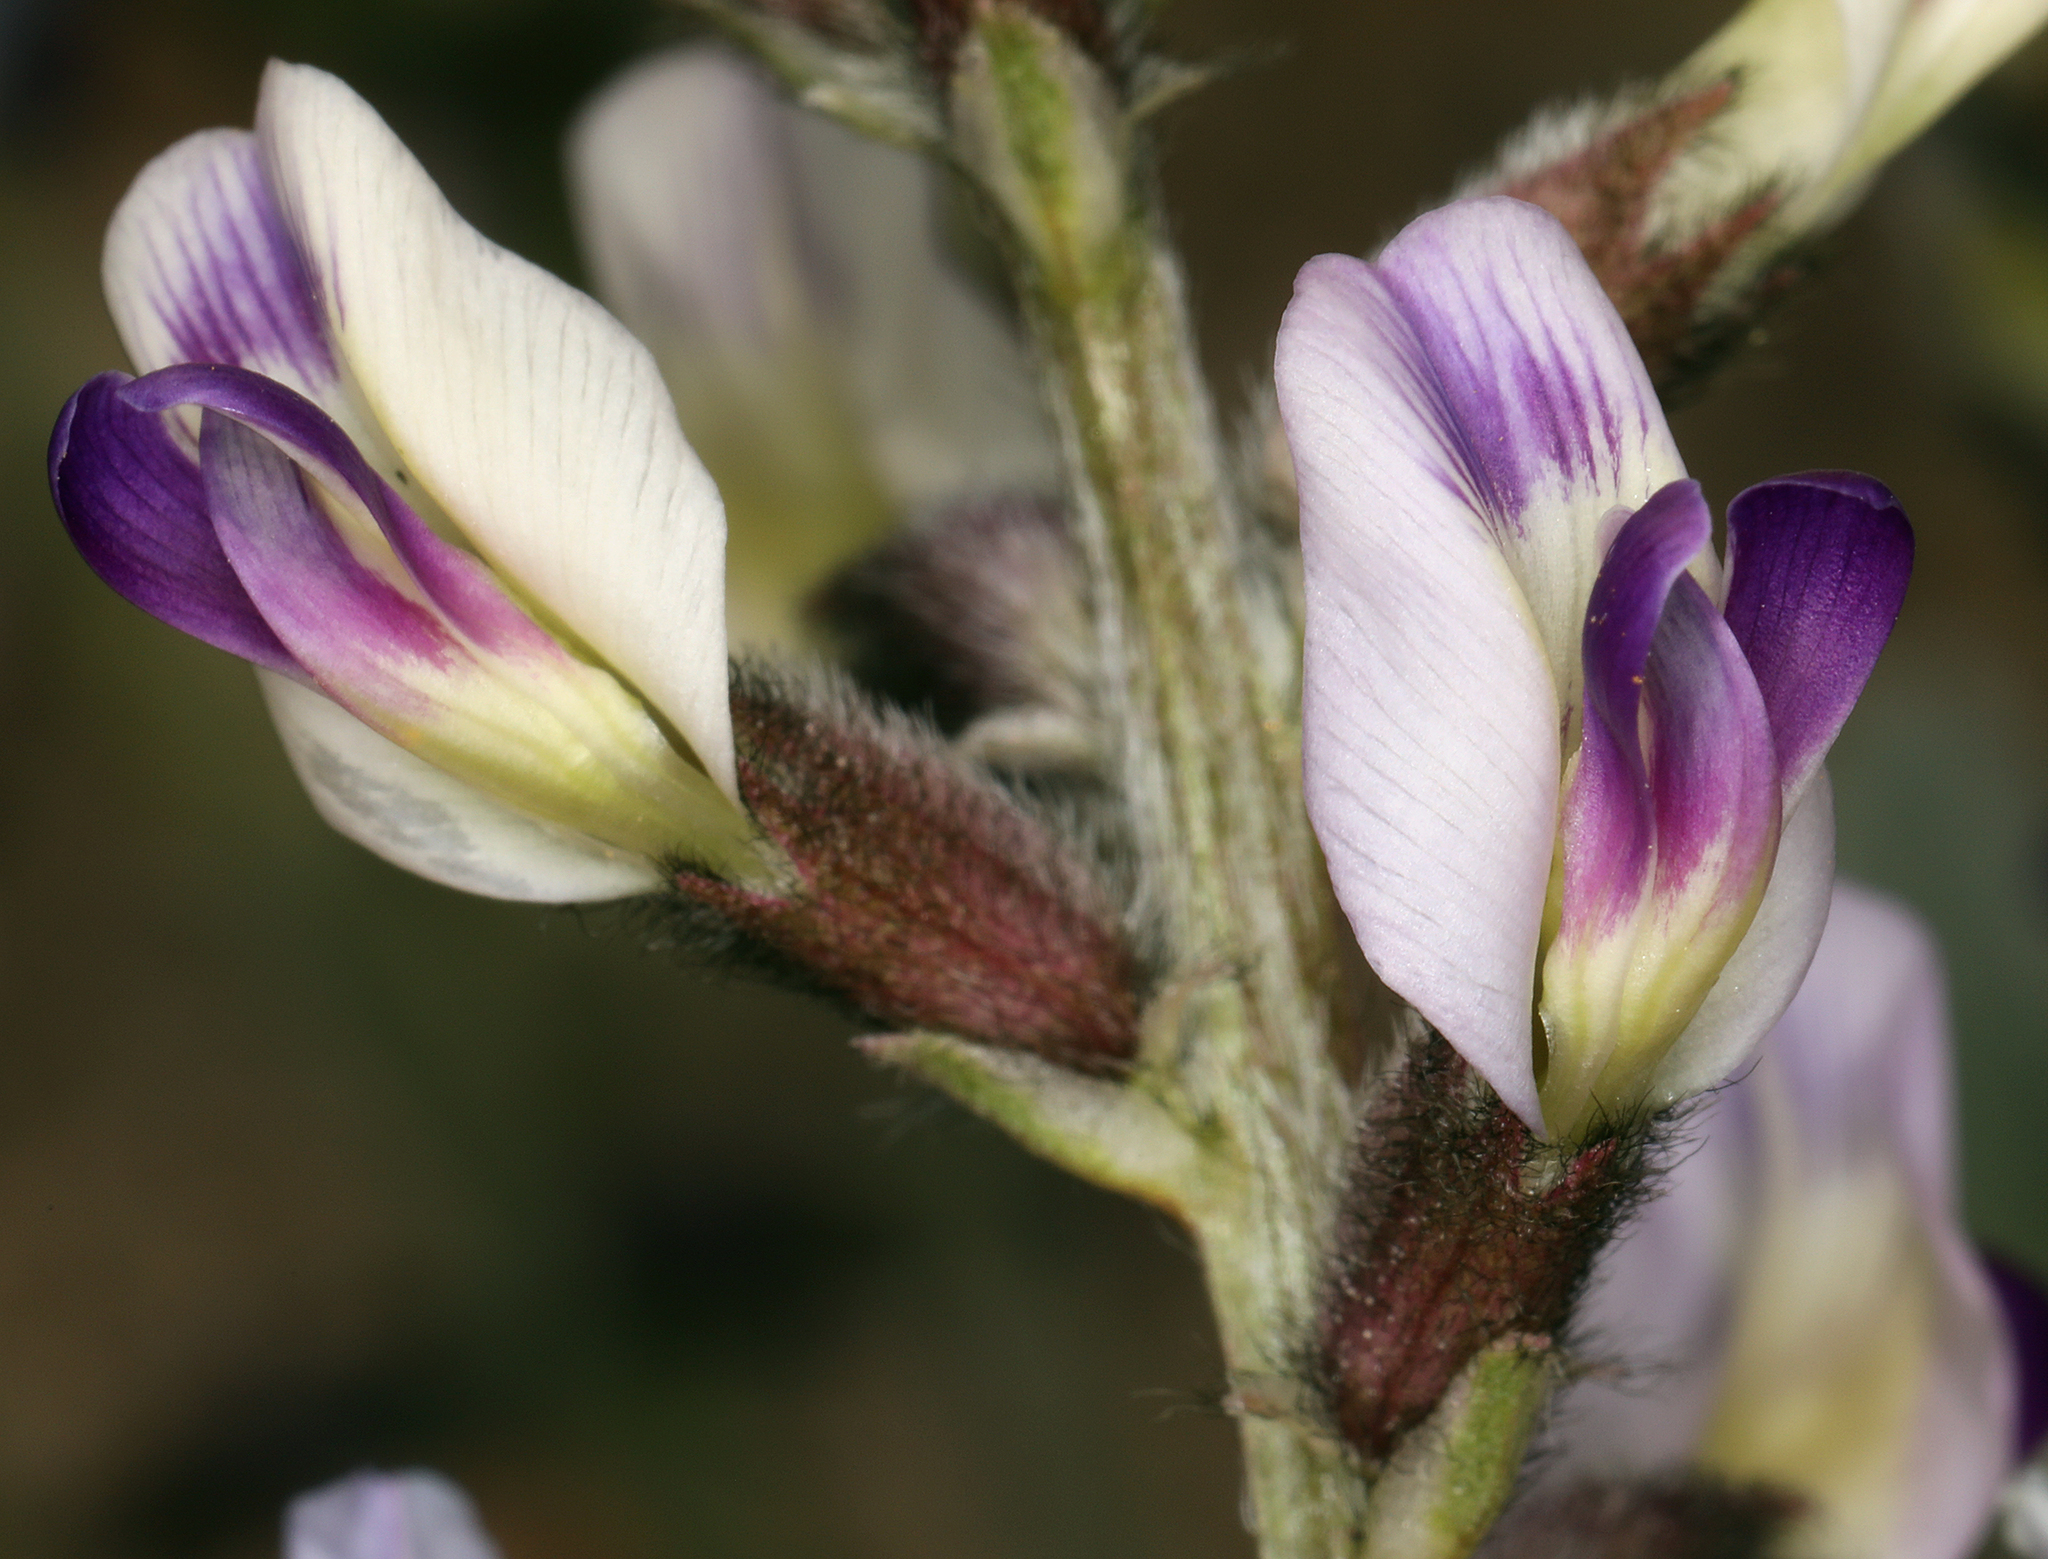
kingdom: Plantae
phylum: Tracheophyta
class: Magnoliopsida
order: Fabales
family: Fabaceae
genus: Astragalus
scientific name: Astragalus layneae
